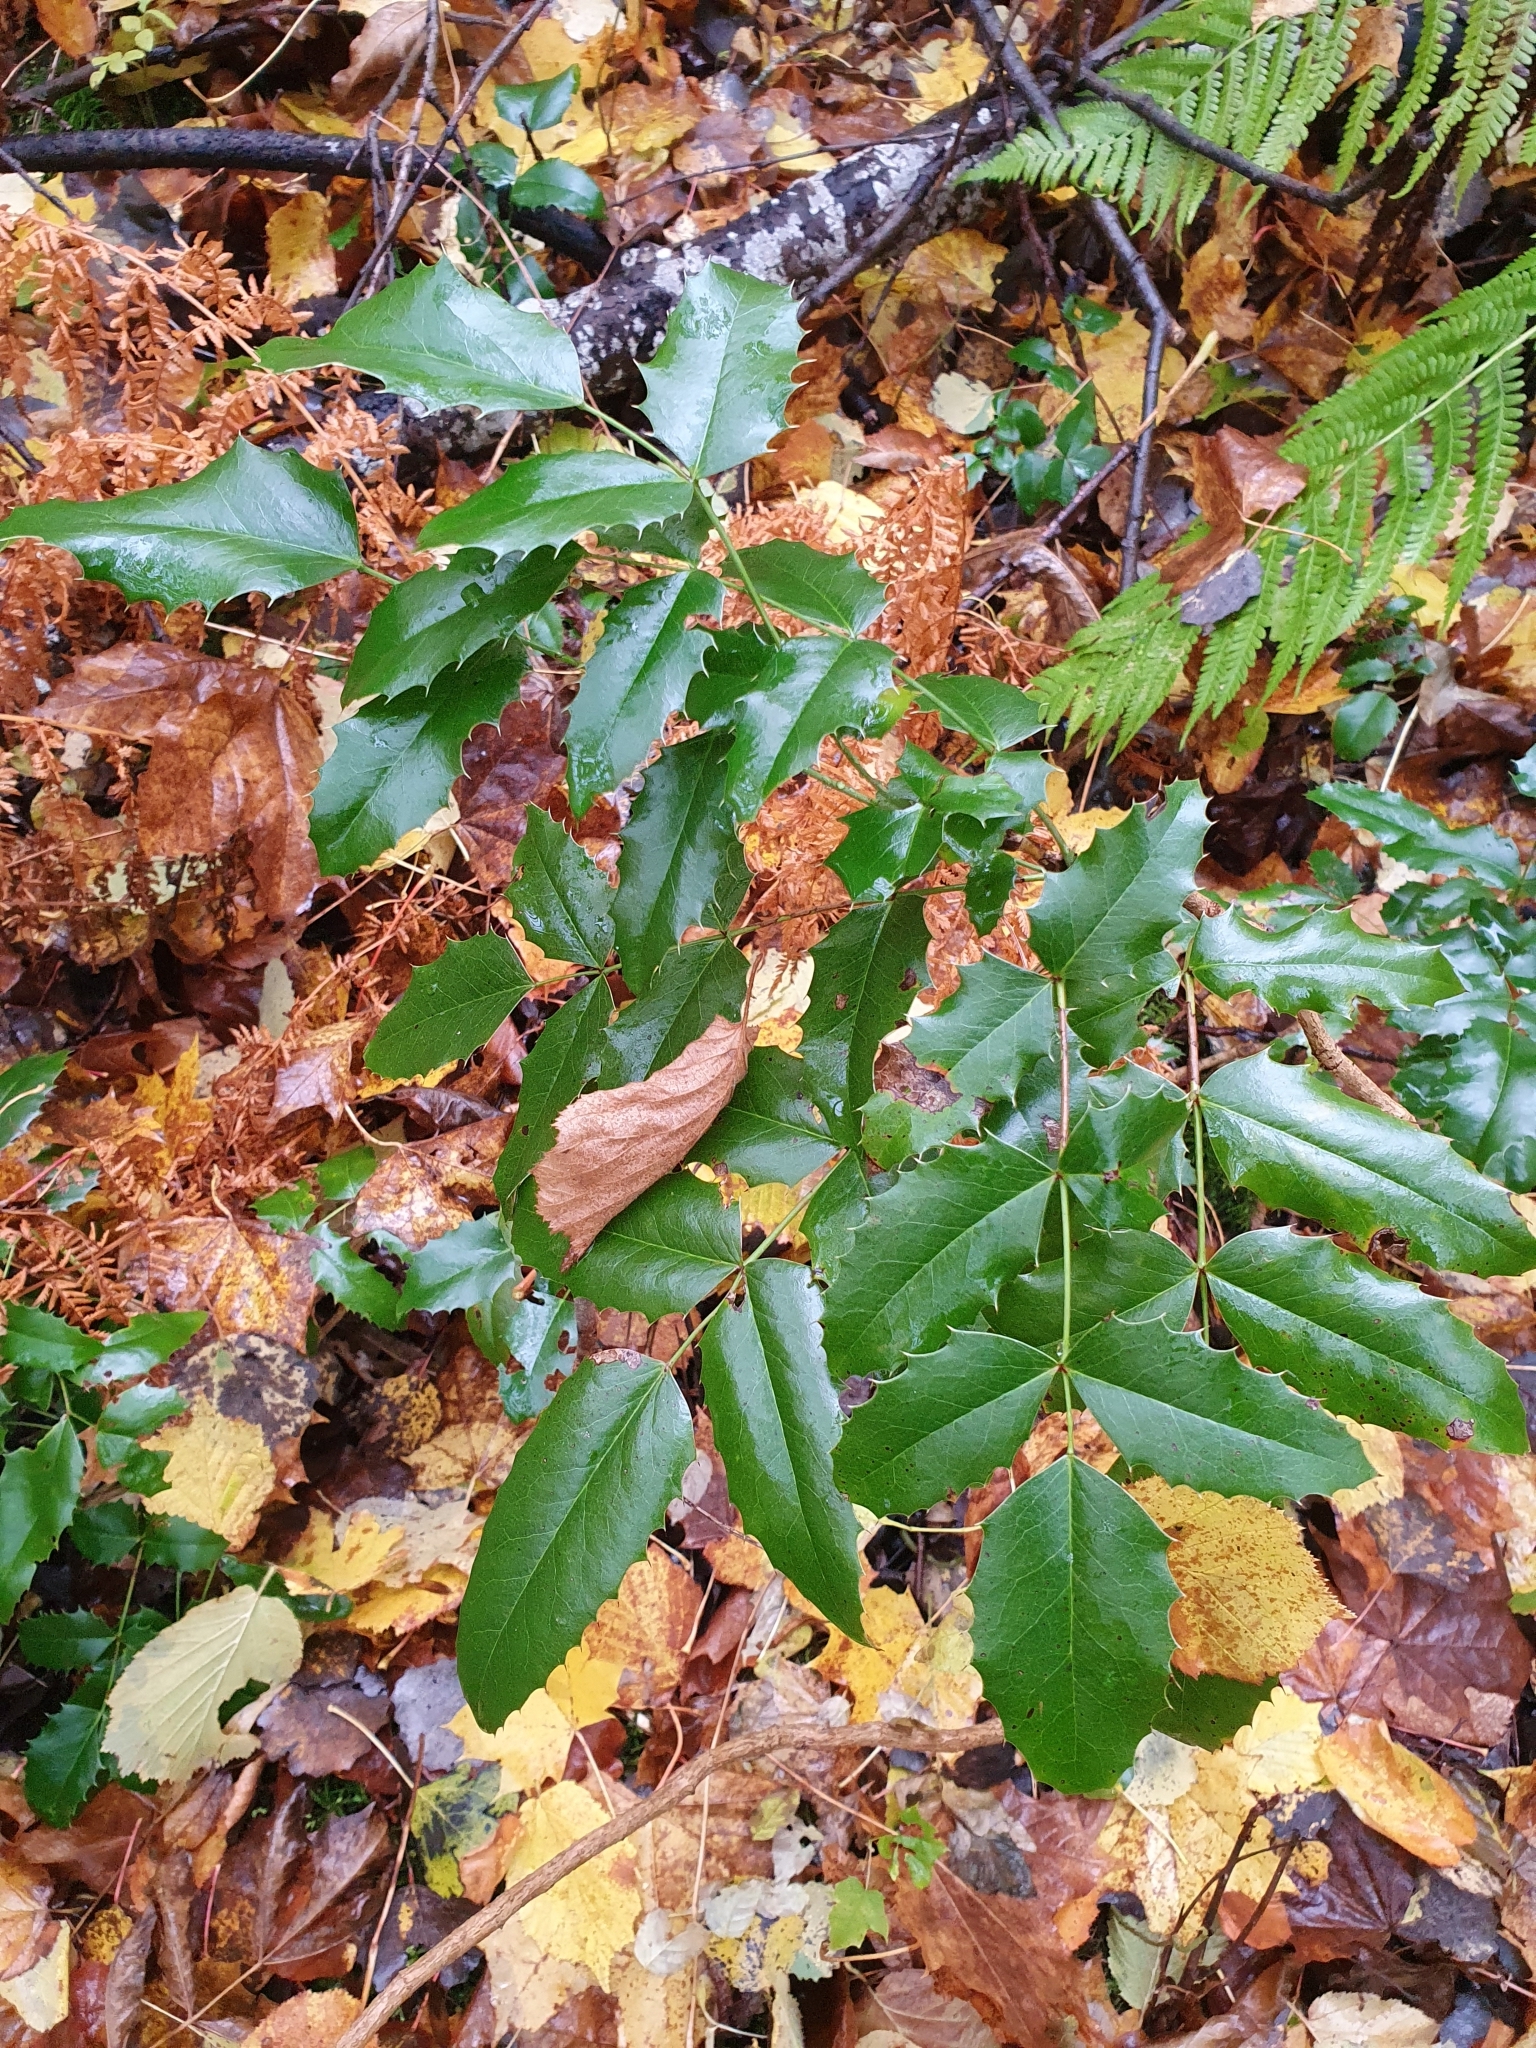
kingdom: Plantae
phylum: Tracheophyta
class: Magnoliopsida
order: Ranunculales
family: Berberidaceae
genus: Mahonia
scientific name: Mahonia aquifolium
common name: Oregon-grape
